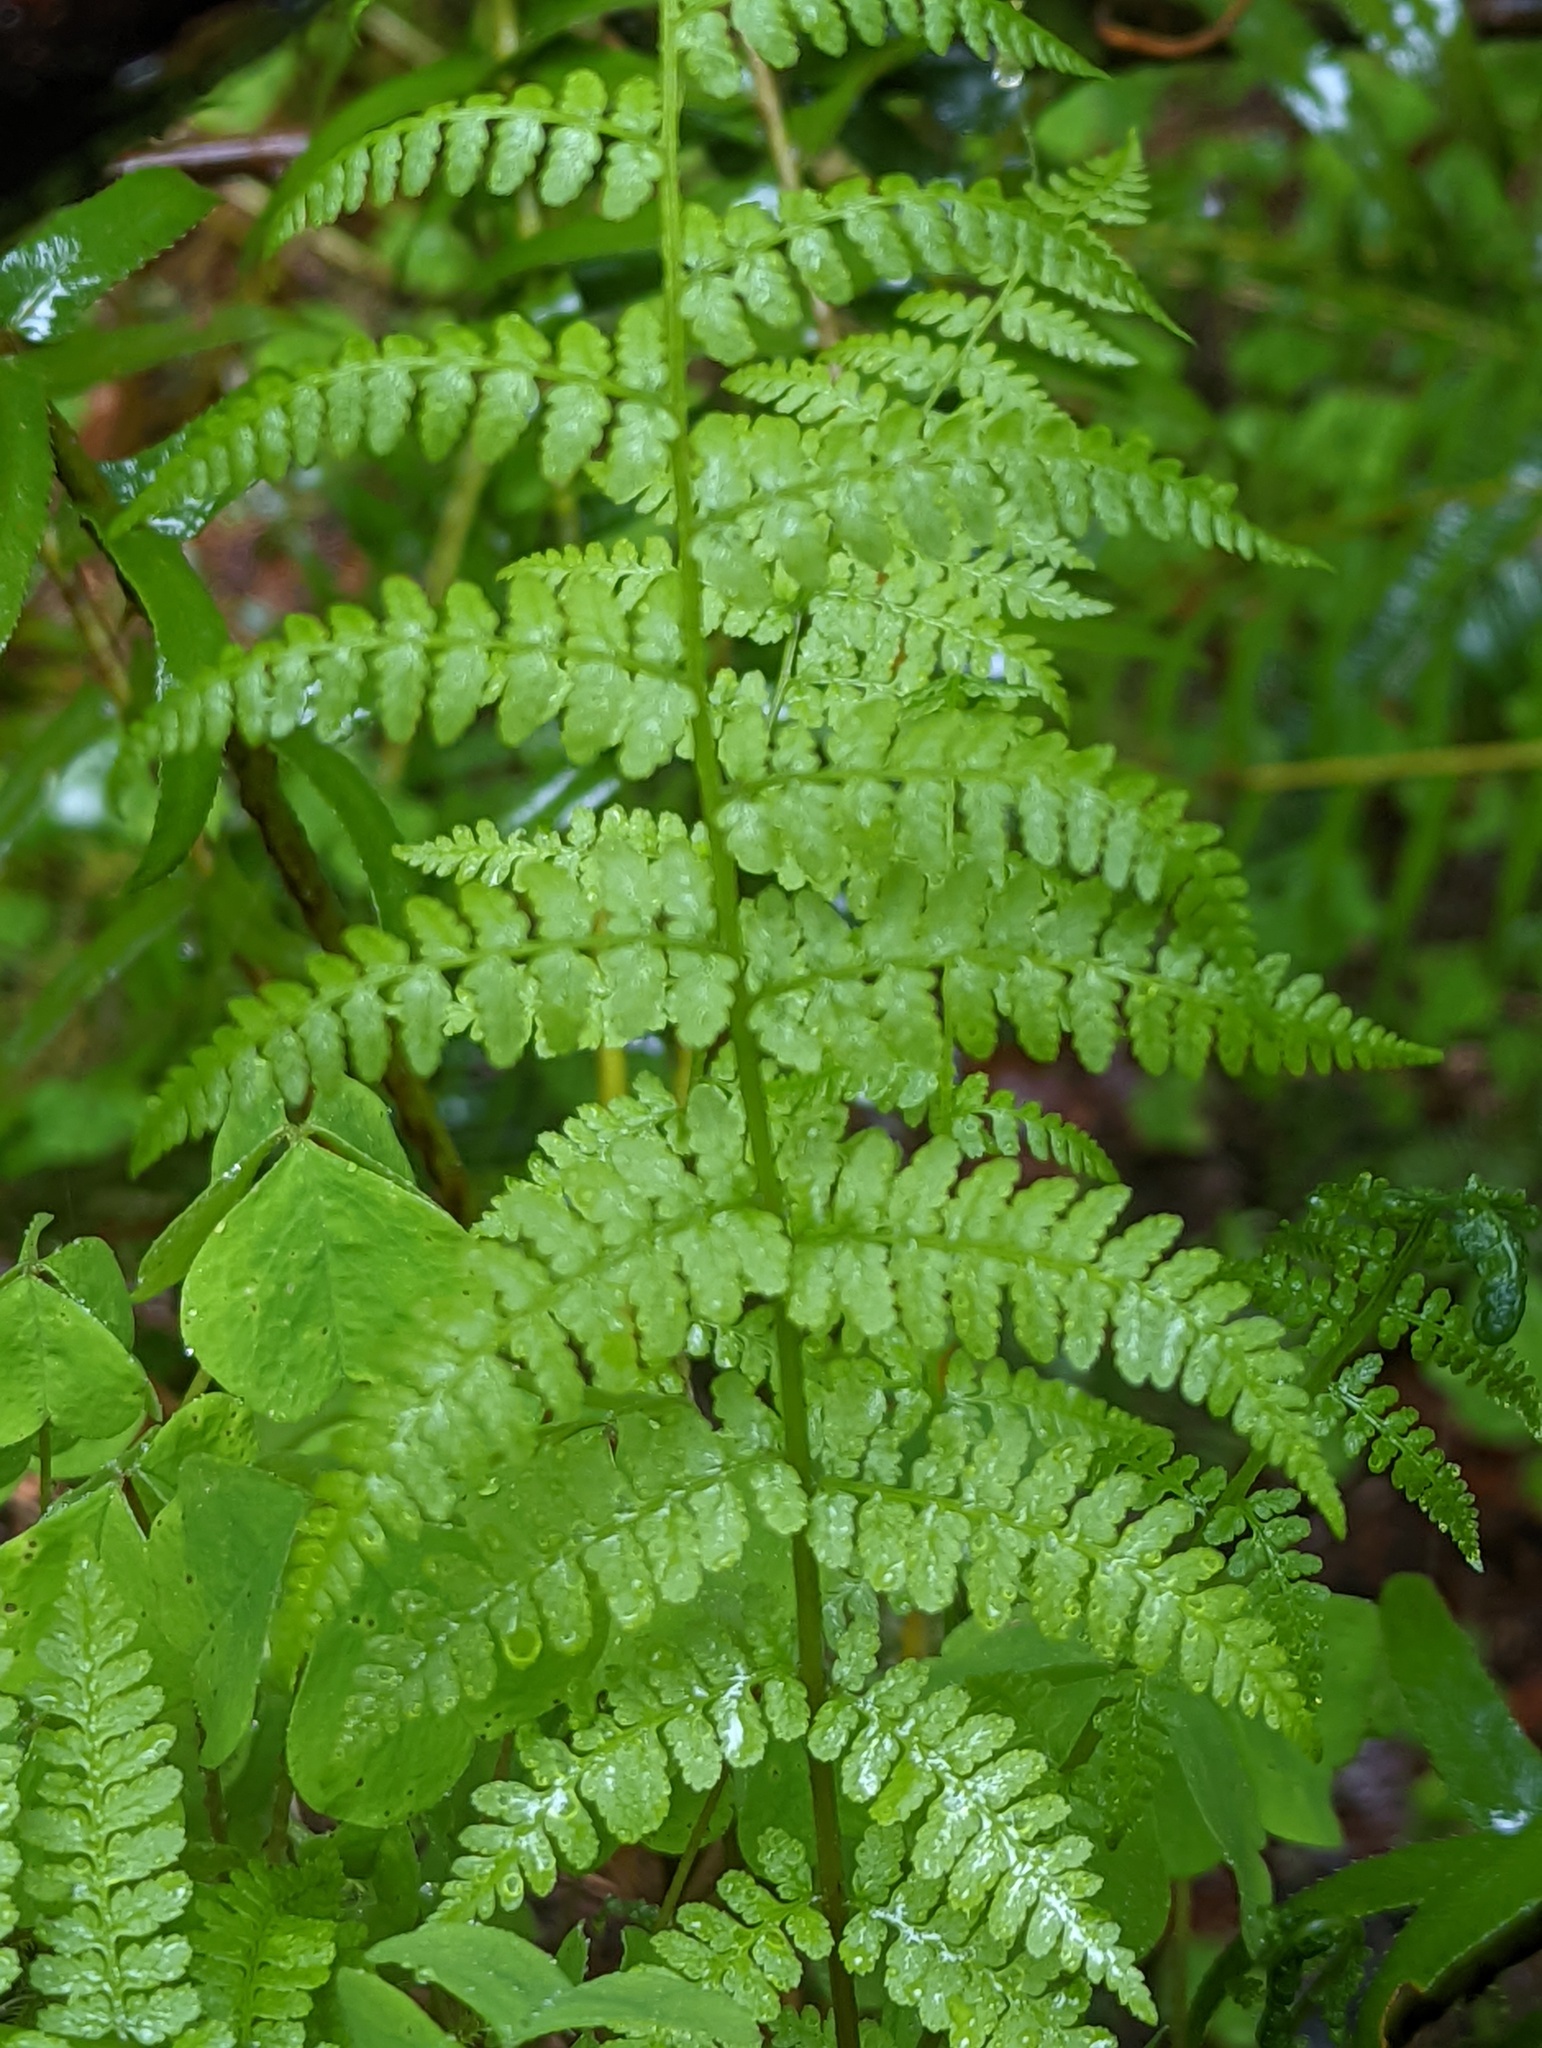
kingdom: Plantae
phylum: Tracheophyta
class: Polypodiopsida
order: Polypodiales
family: Athyriaceae
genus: Athyrium
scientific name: Athyrium filix-femina
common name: Lady fern
